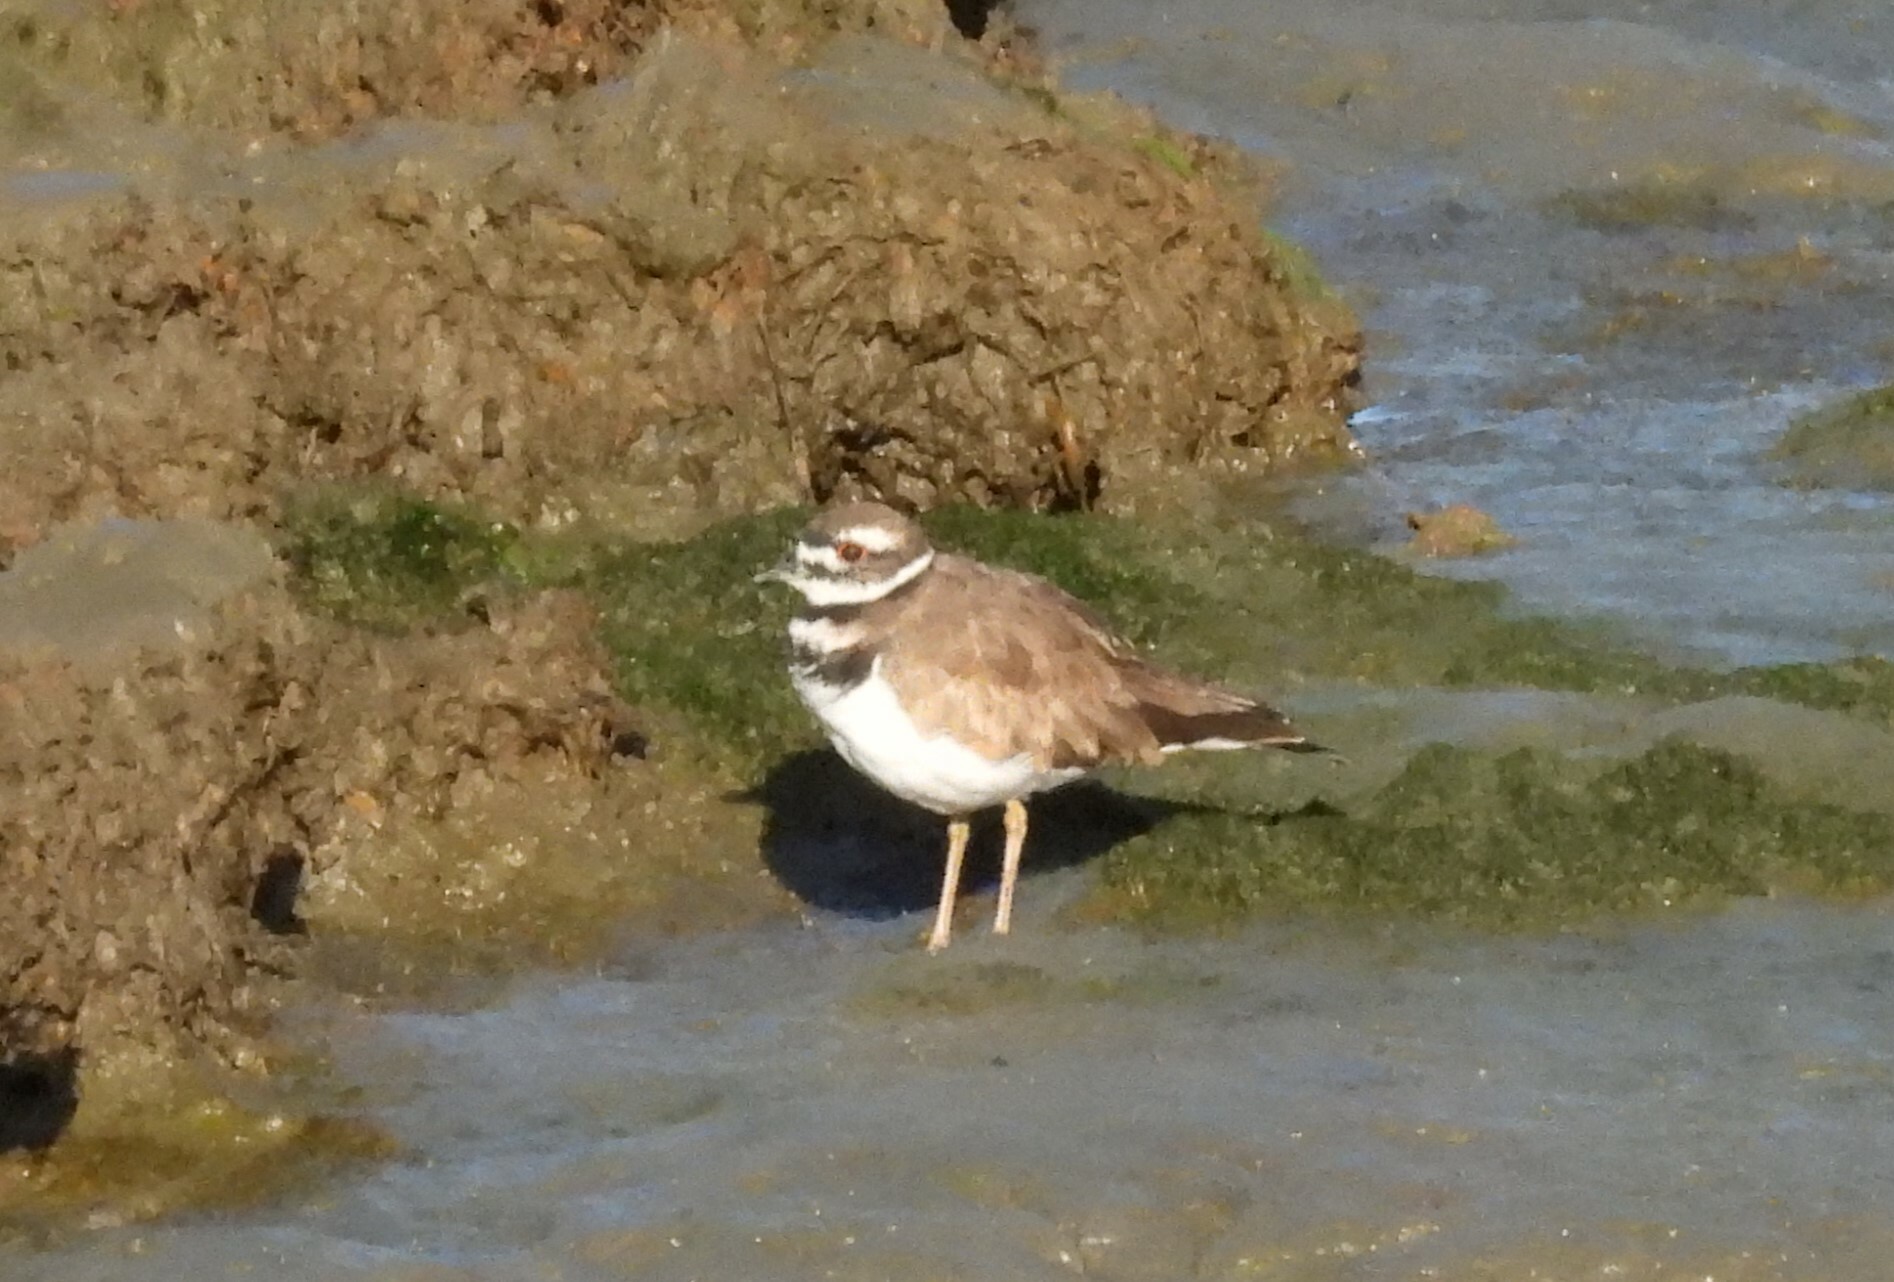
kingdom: Animalia
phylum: Chordata
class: Aves
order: Charadriiformes
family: Charadriidae
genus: Charadrius
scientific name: Charadrius vociferus
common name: Killdeer
